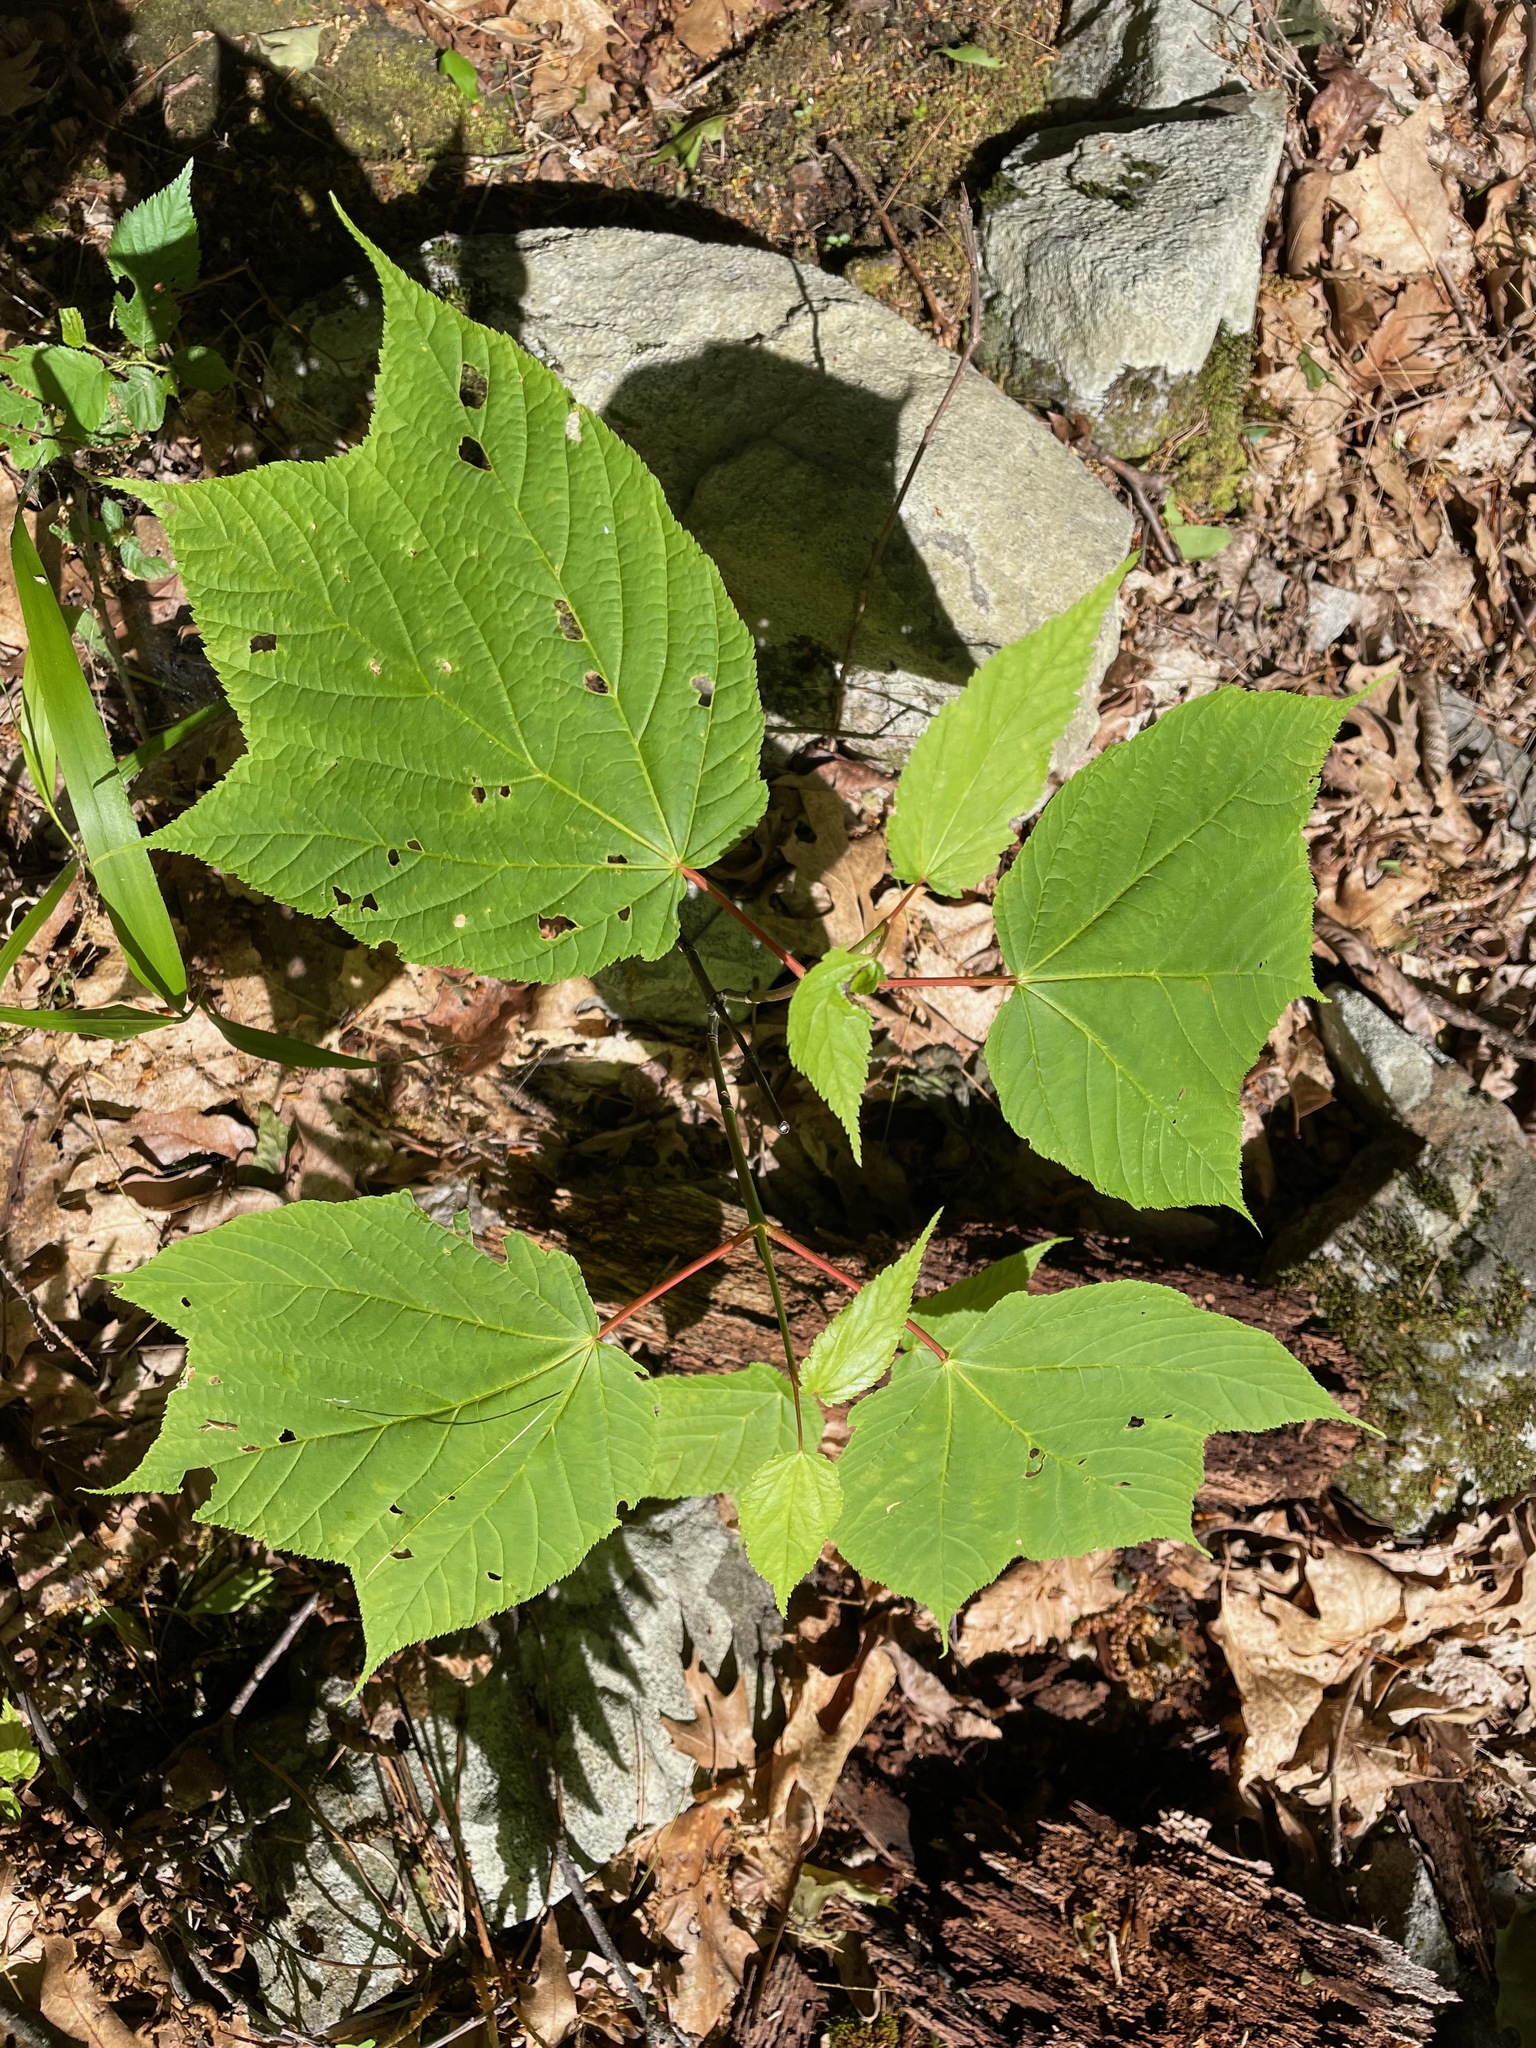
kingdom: Plantae
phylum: Tracheophyta
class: Magnoliopsida
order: Sapindales
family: Sapindaceae
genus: Acer
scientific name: Acer pensylvanicum
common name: Moosewood
